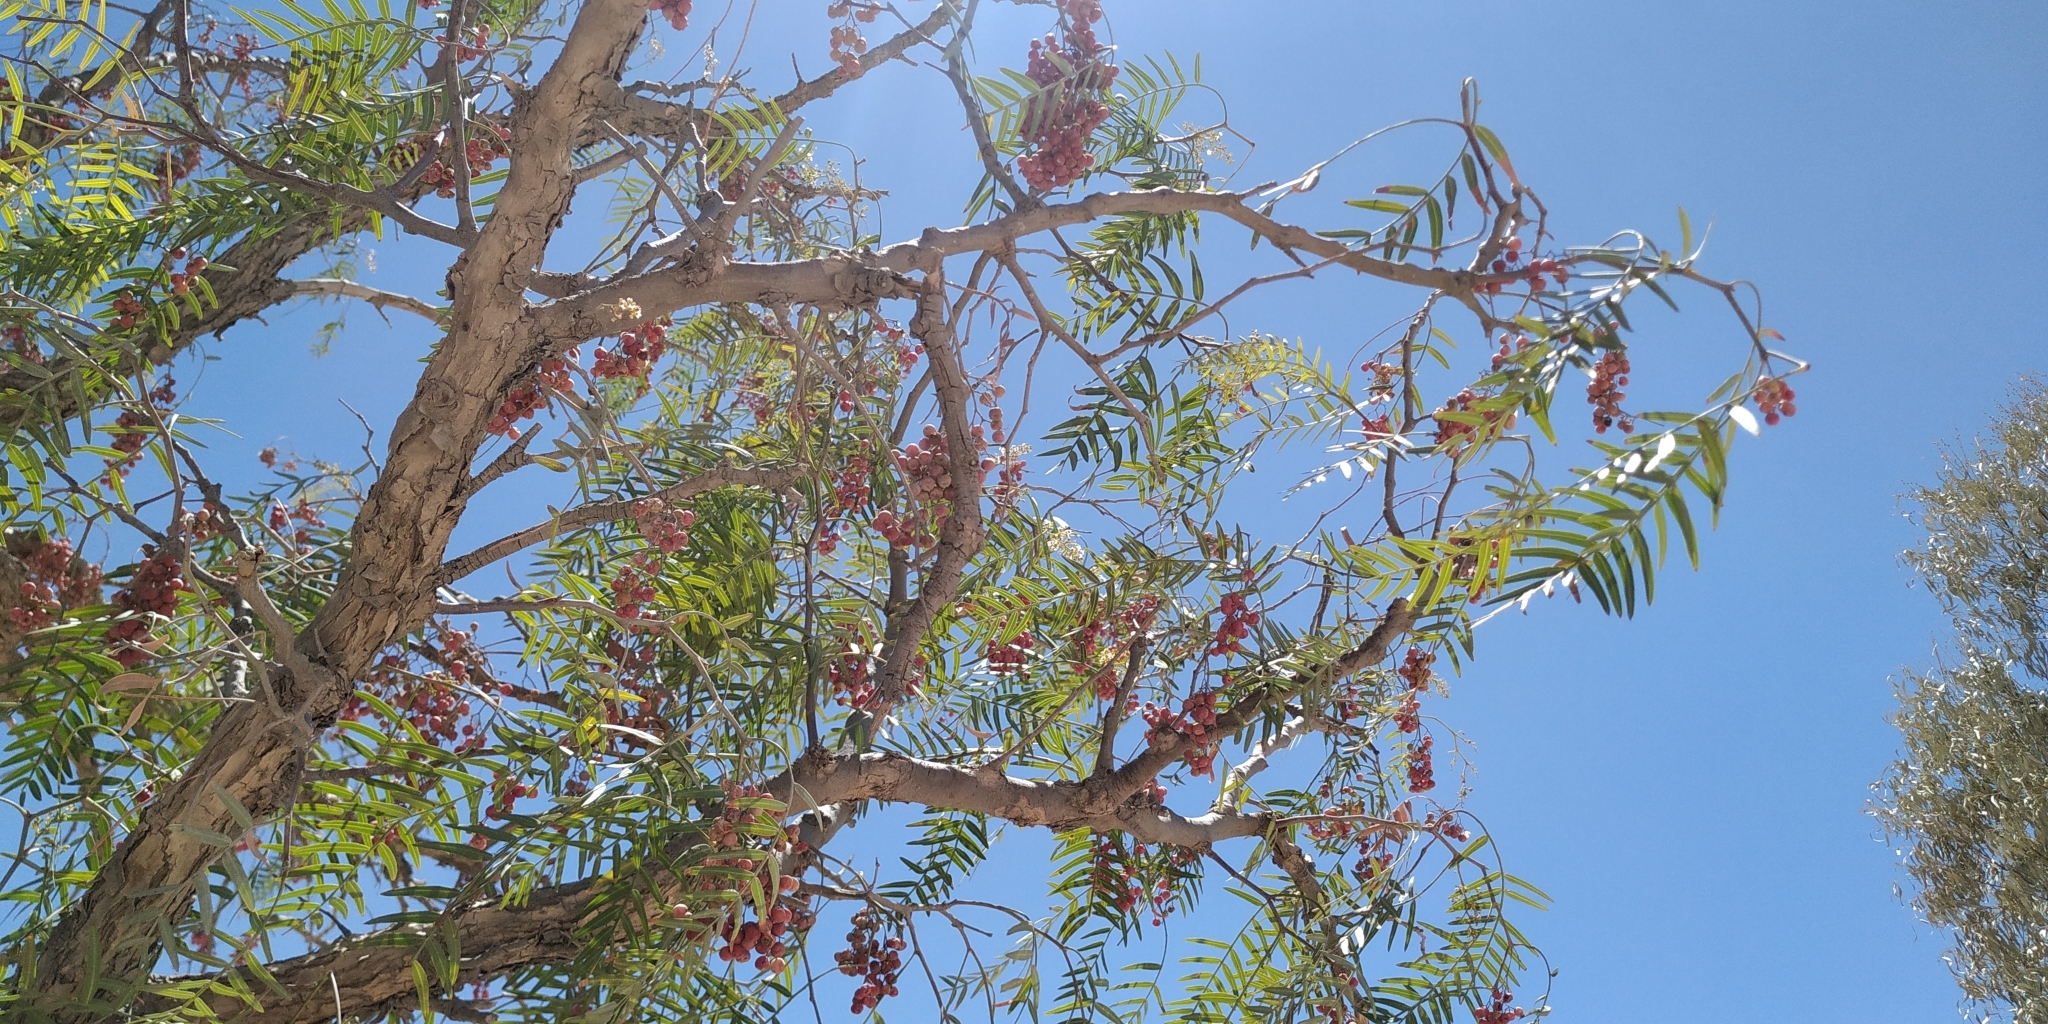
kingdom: Plantae
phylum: Tracheophyta
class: Magnoliopsida
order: Sapindales
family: Anacardiaceae
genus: Schinus
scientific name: Schinus molle
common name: Peruvian peppertree
